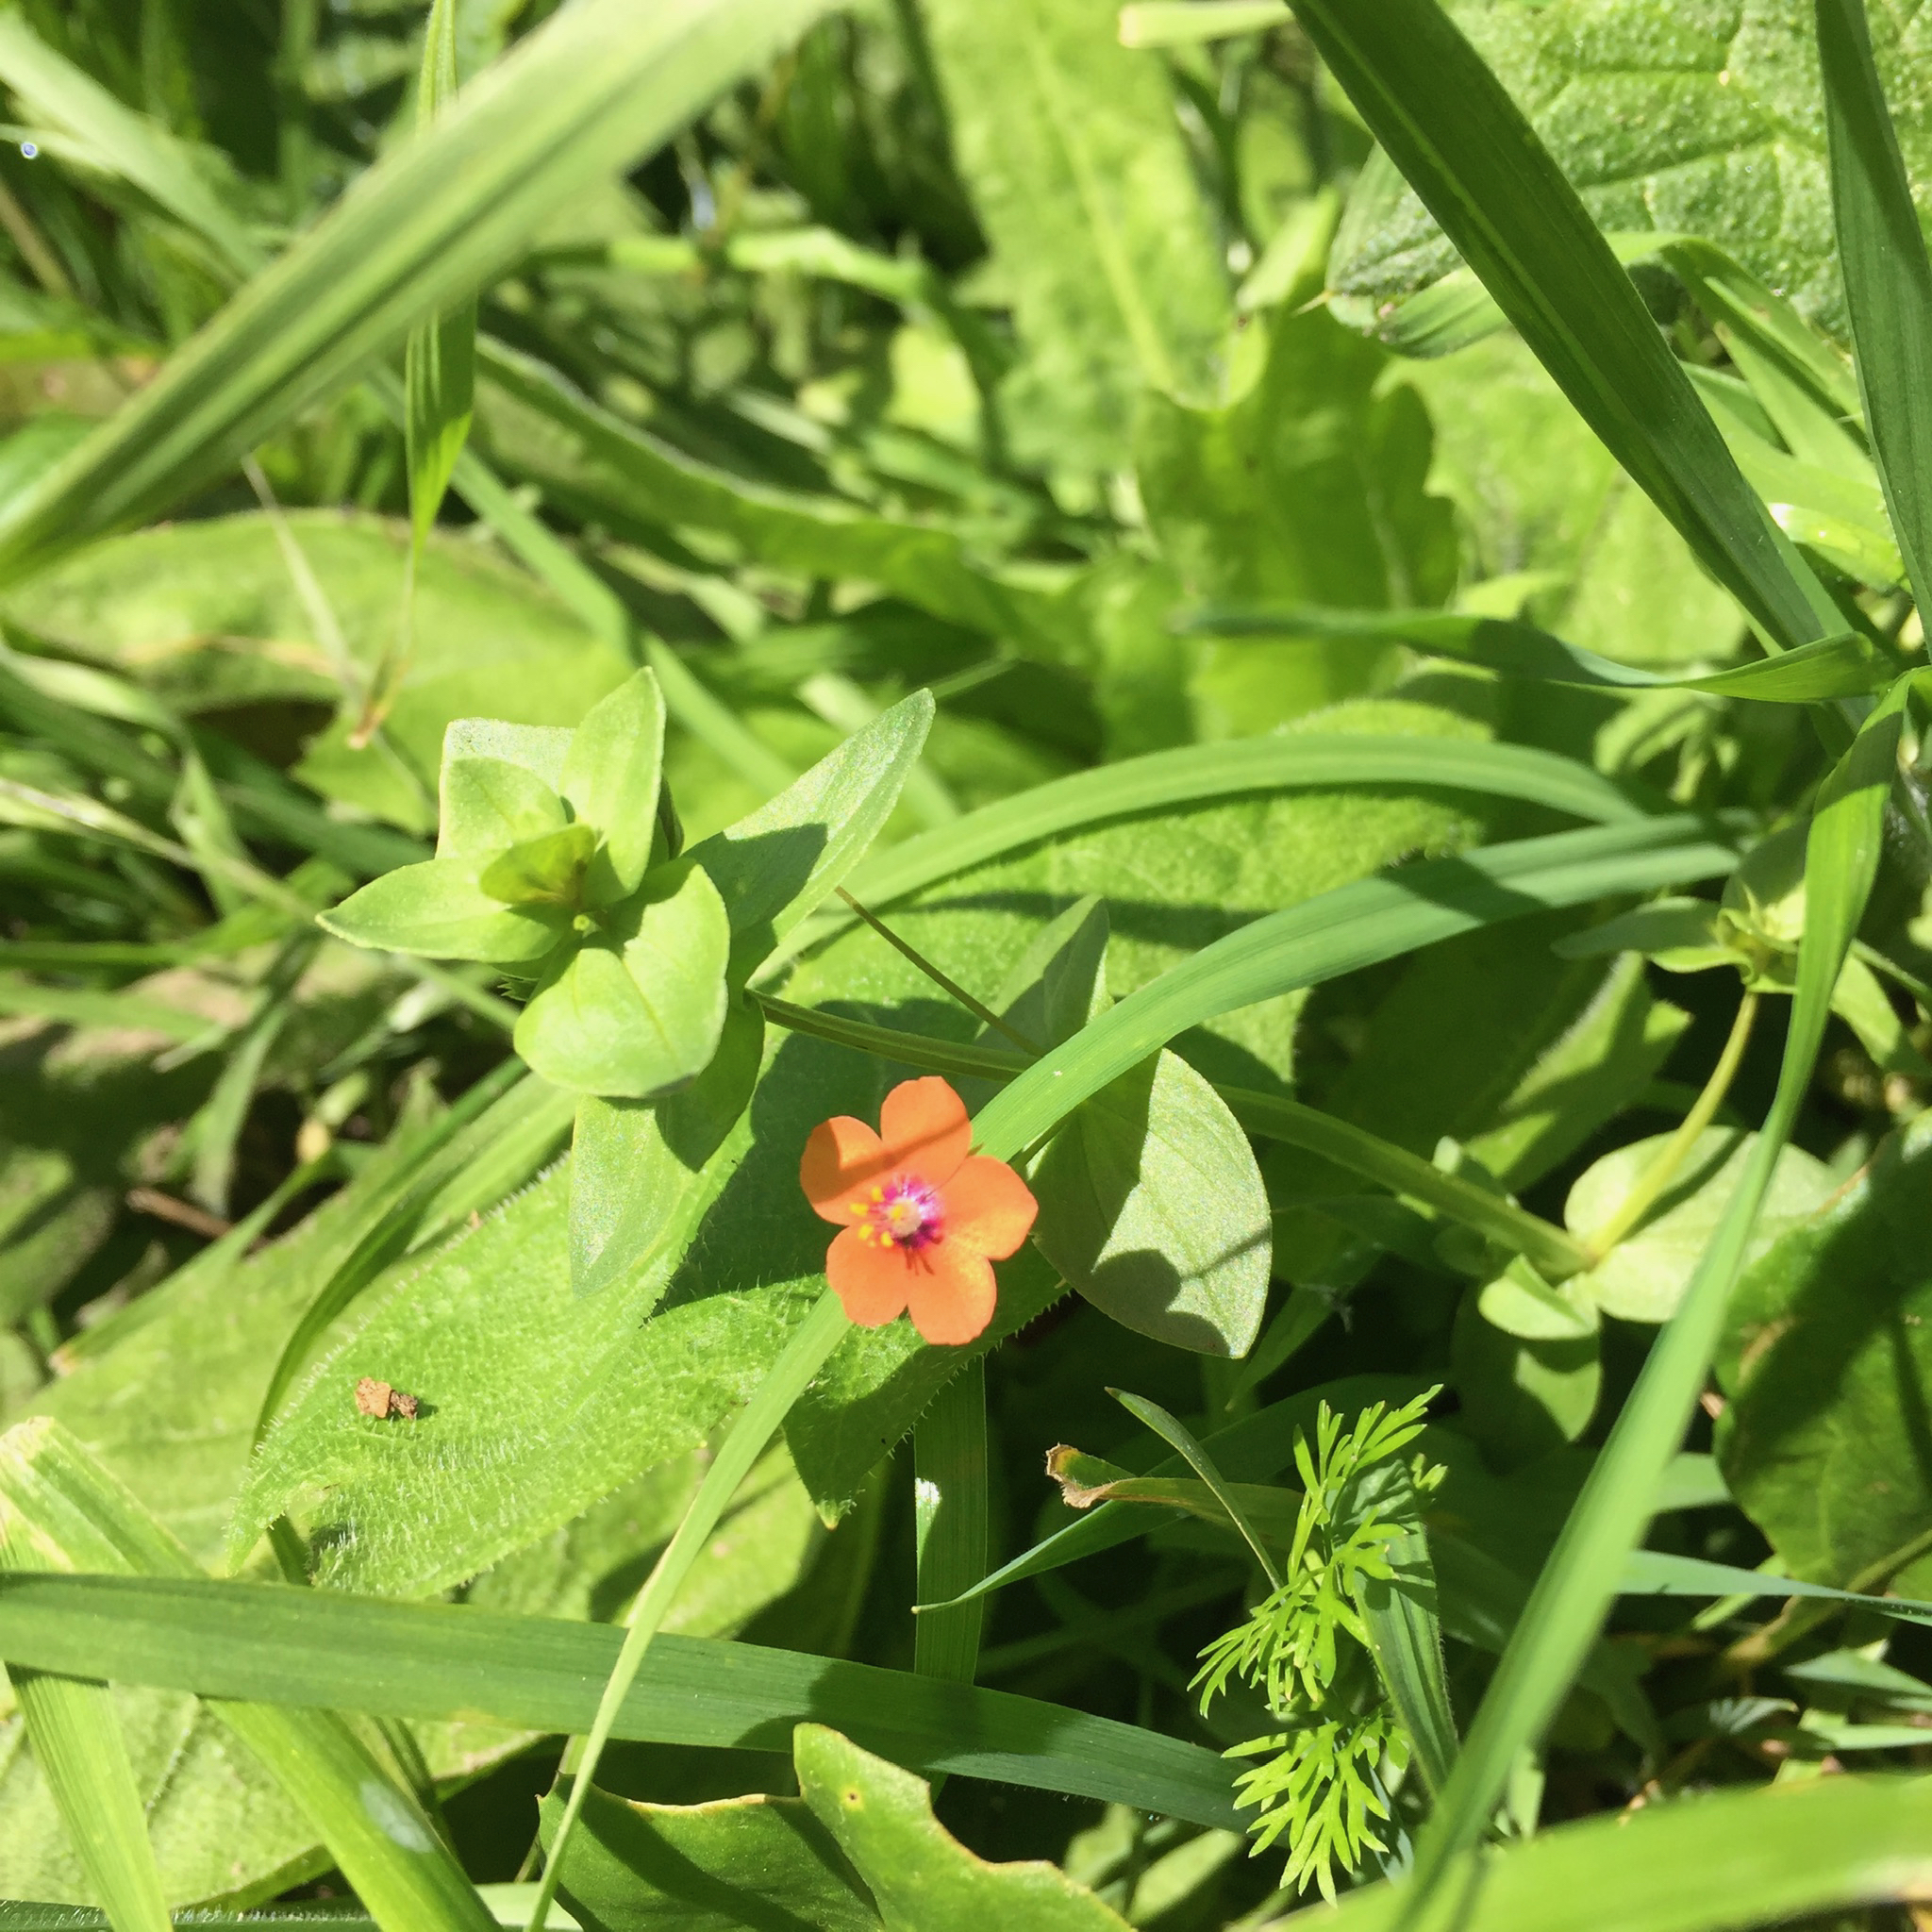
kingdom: Plantae
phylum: Tracheophyta
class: Magnoliopsida
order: Ericales
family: Primulaceae
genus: Lysimachia
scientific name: Lysimachia arvensis
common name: Scarlet pimpernel
